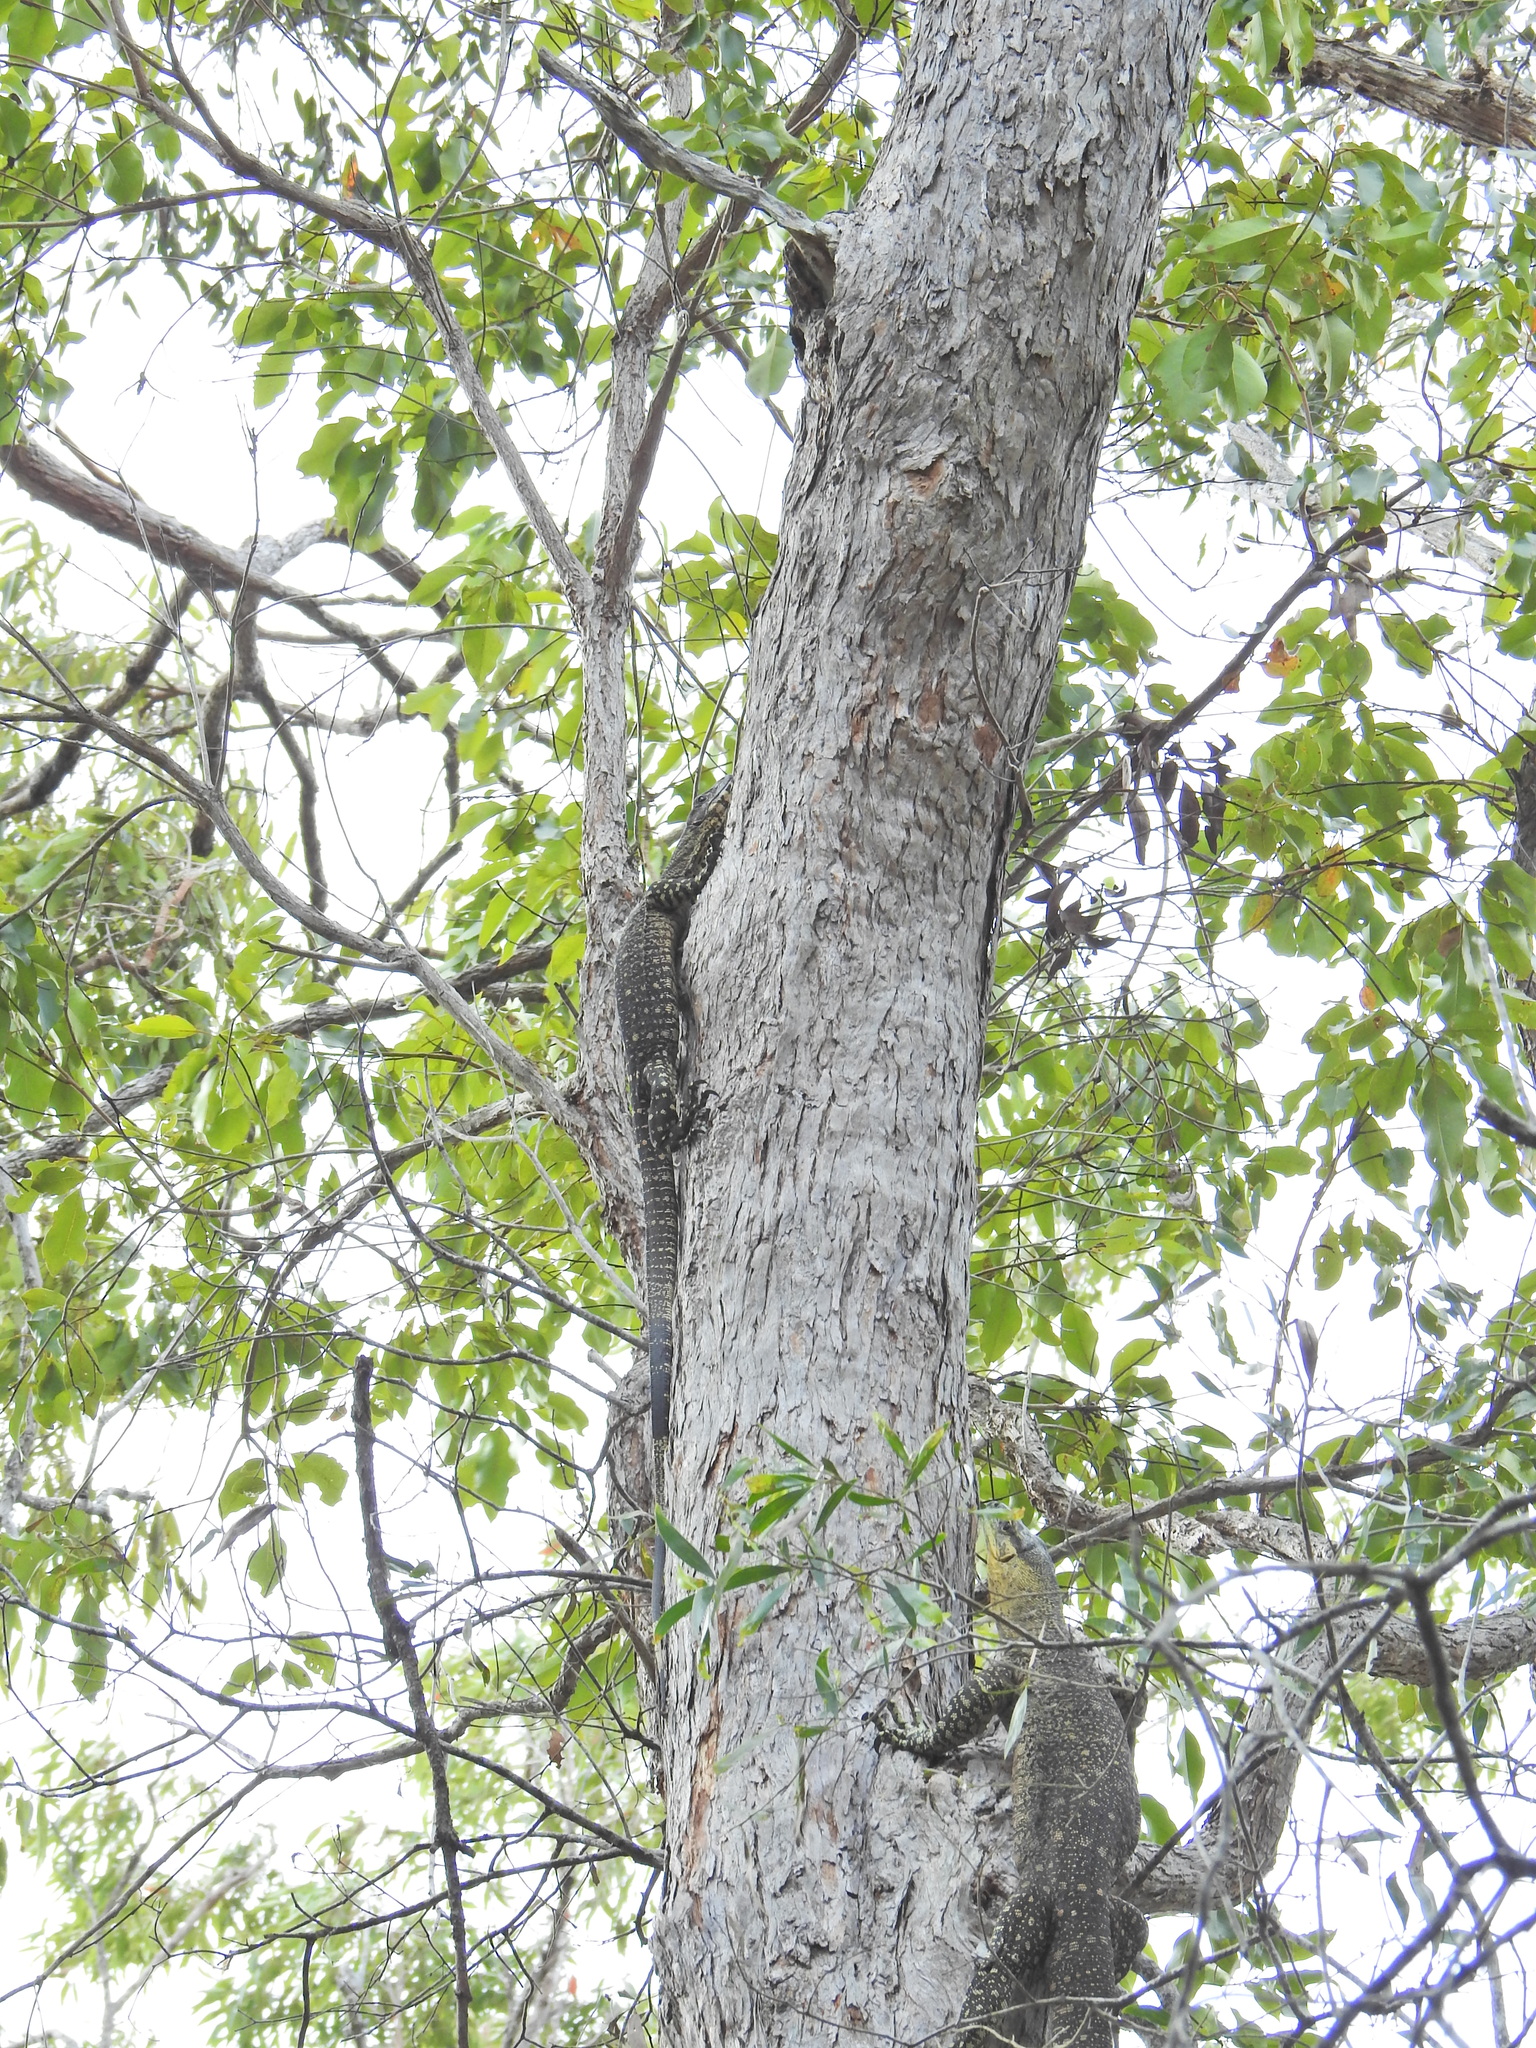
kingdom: Animalia
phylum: Chordata
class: Squamata
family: Varanidae
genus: Varanus
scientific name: Varanus varius
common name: Lace monitor
